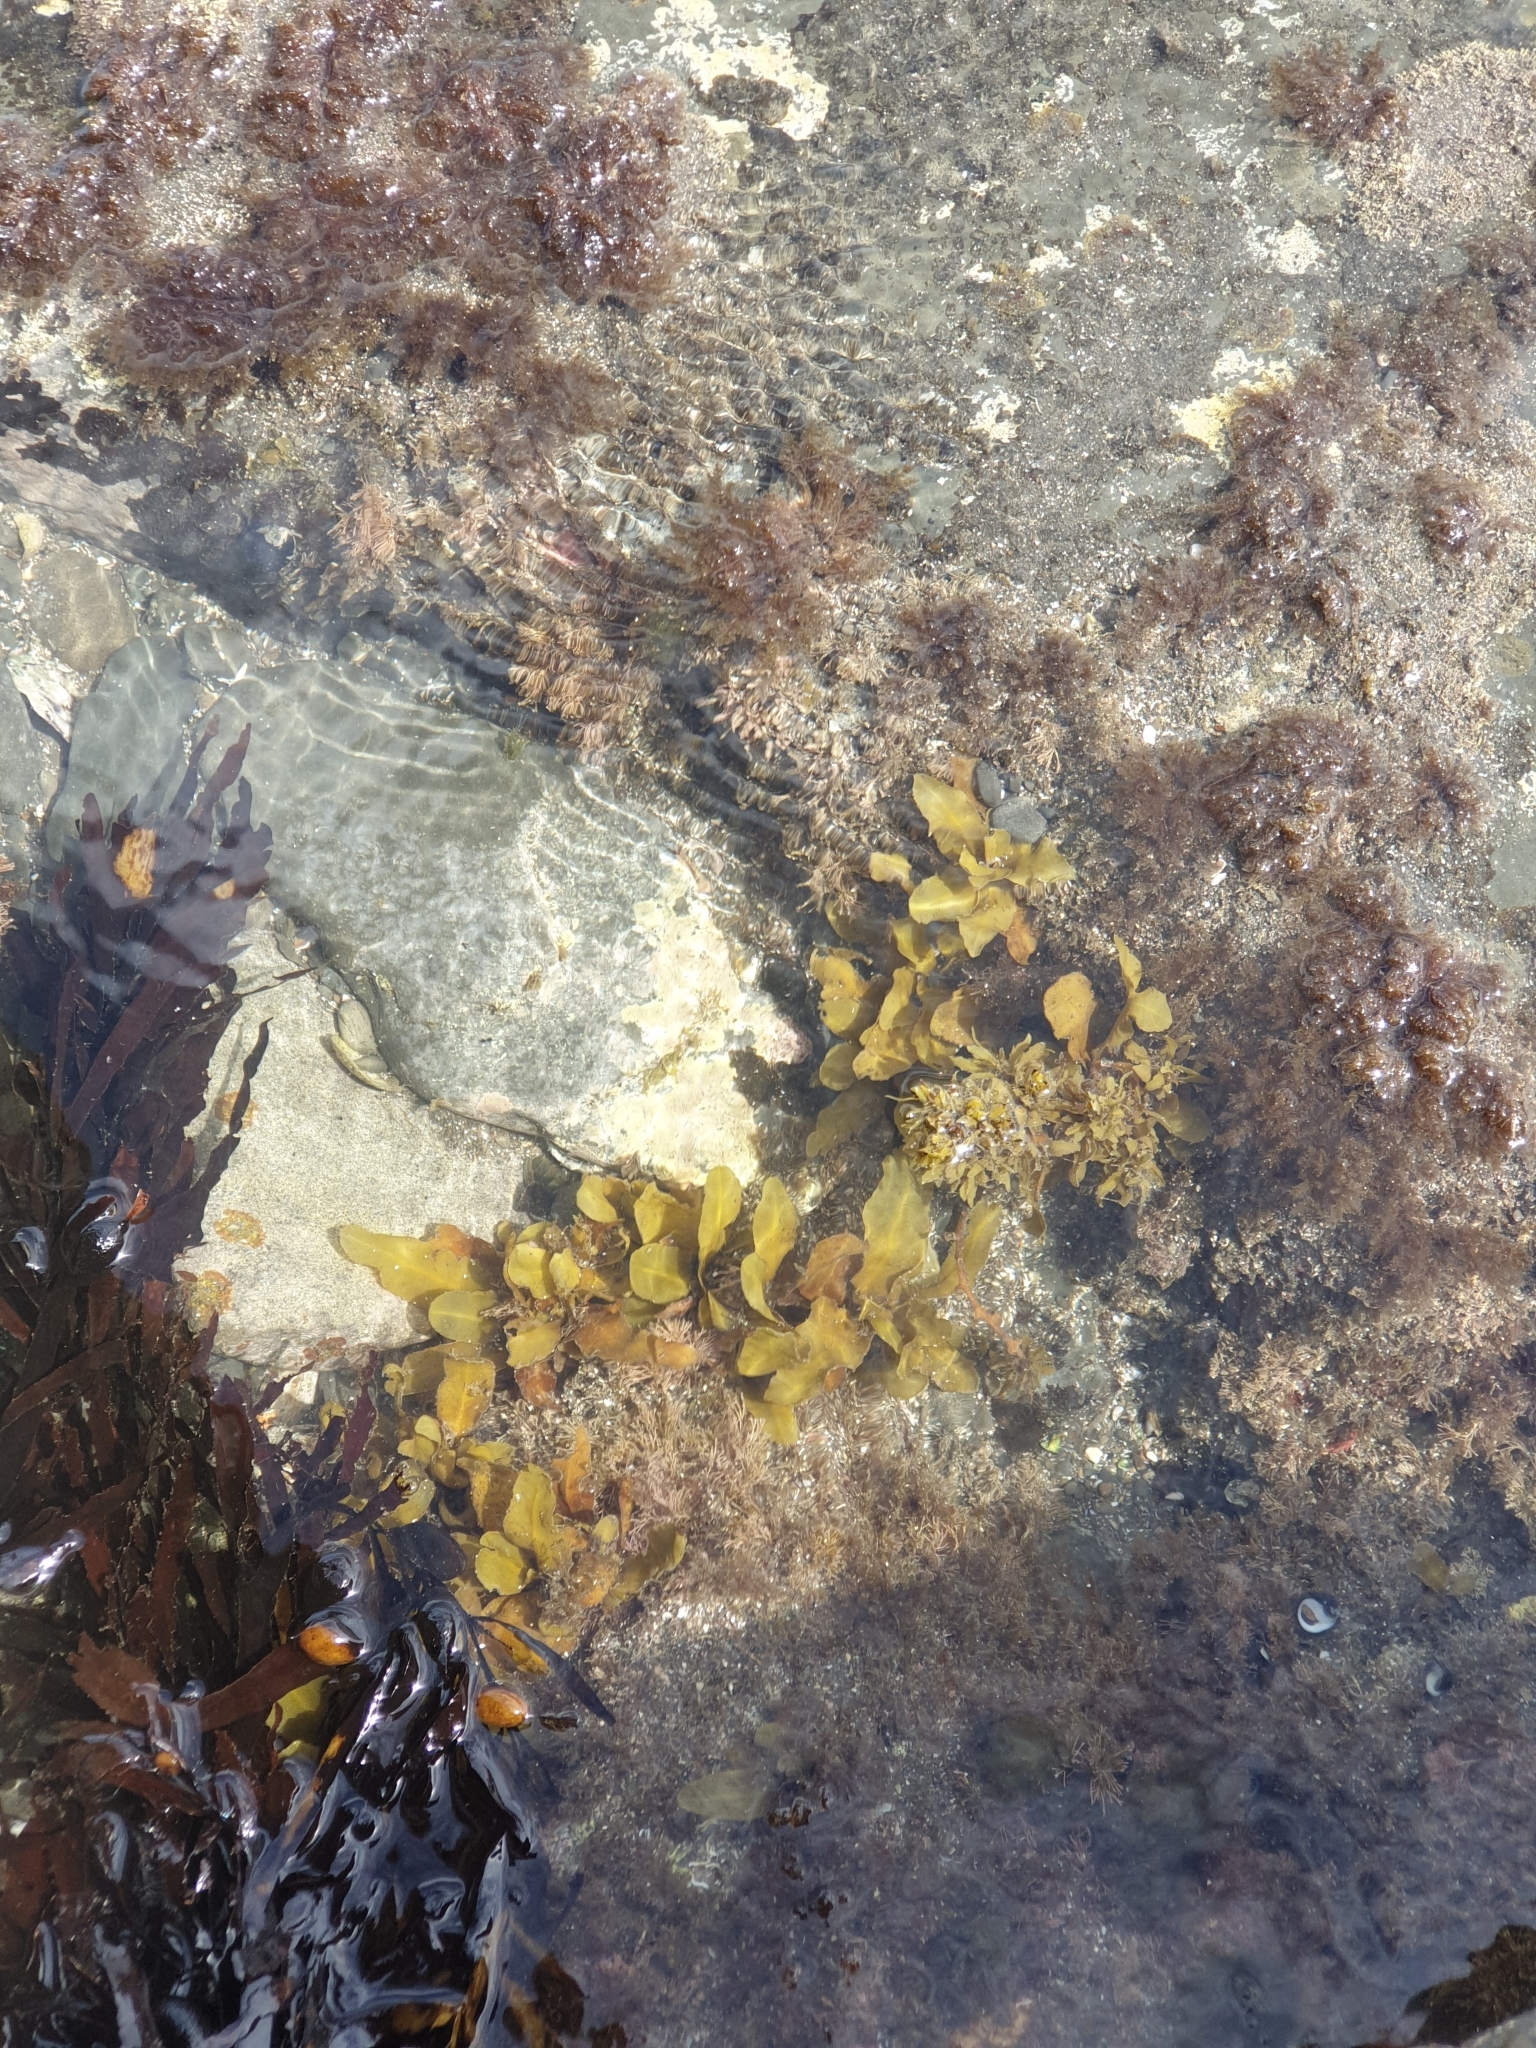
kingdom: Chromista
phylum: Ochrophyta
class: Phaeophyceae
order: Fucales
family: Sargassaceae
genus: Sargassum
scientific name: Sargassum sinclairii
